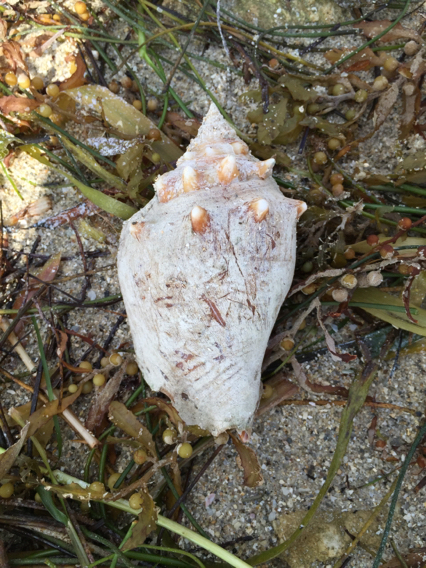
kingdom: Animalia
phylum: Mollusca
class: Gastropoda
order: Littorinimorpha
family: Strombidae
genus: Strombus
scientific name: Strombus alatus
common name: Florida fighting conch
